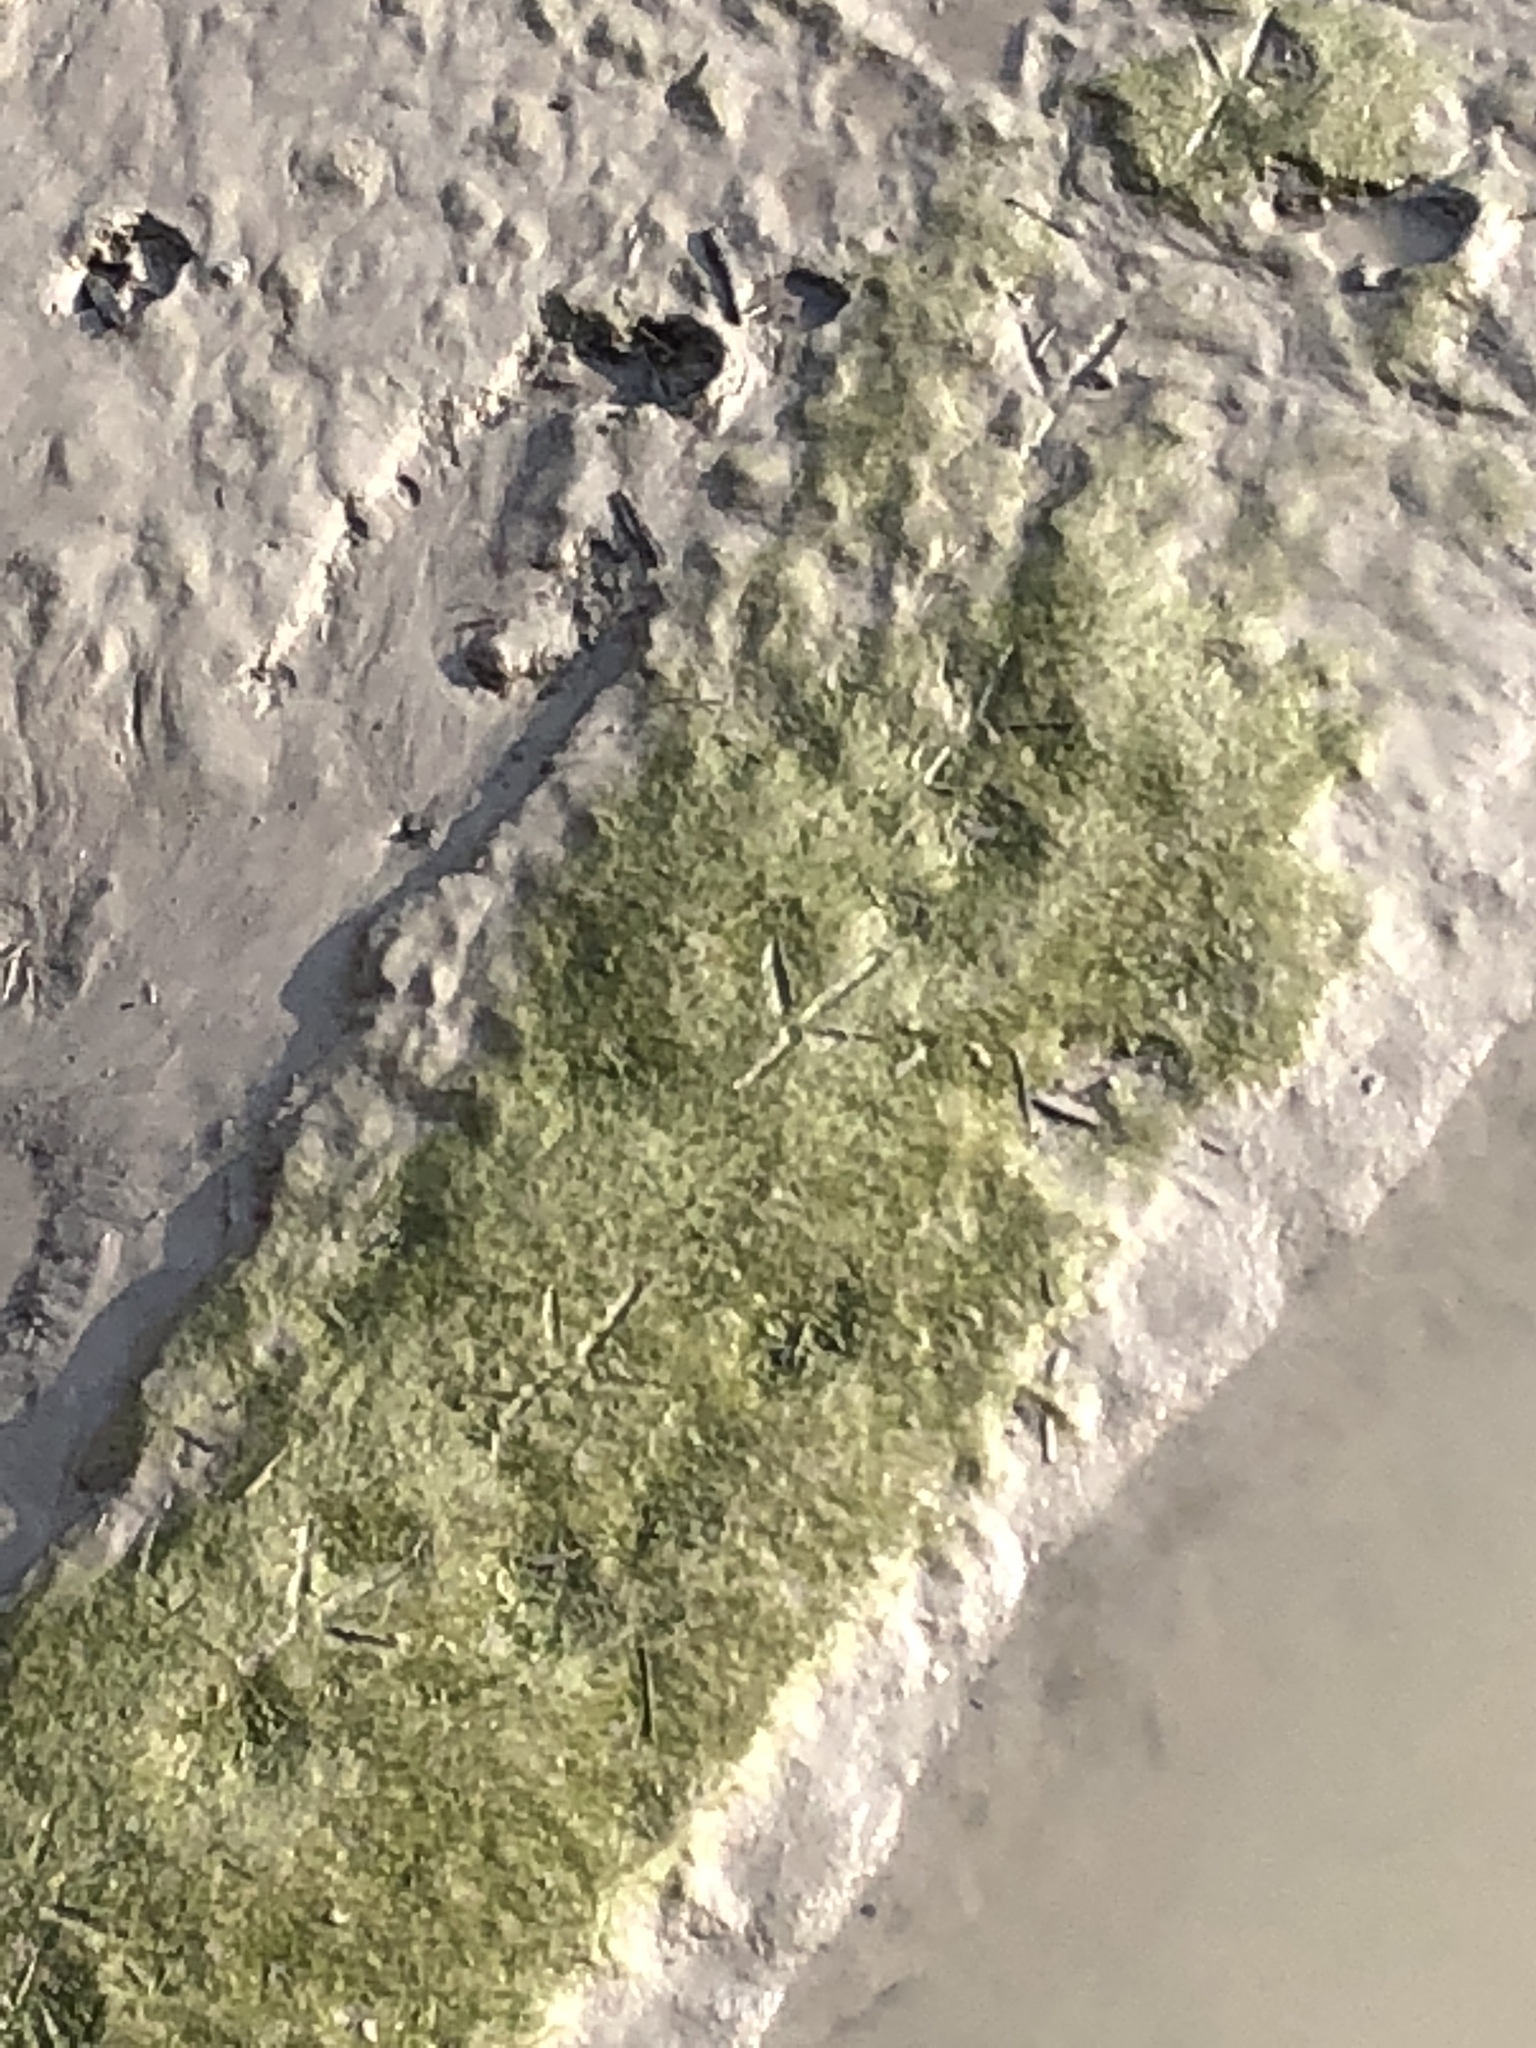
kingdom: Animalia
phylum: Chordata
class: Aves
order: Pelecaniformes
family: Ardeidae
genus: Ardea
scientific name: Ardea herodias
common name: Great blue heron
